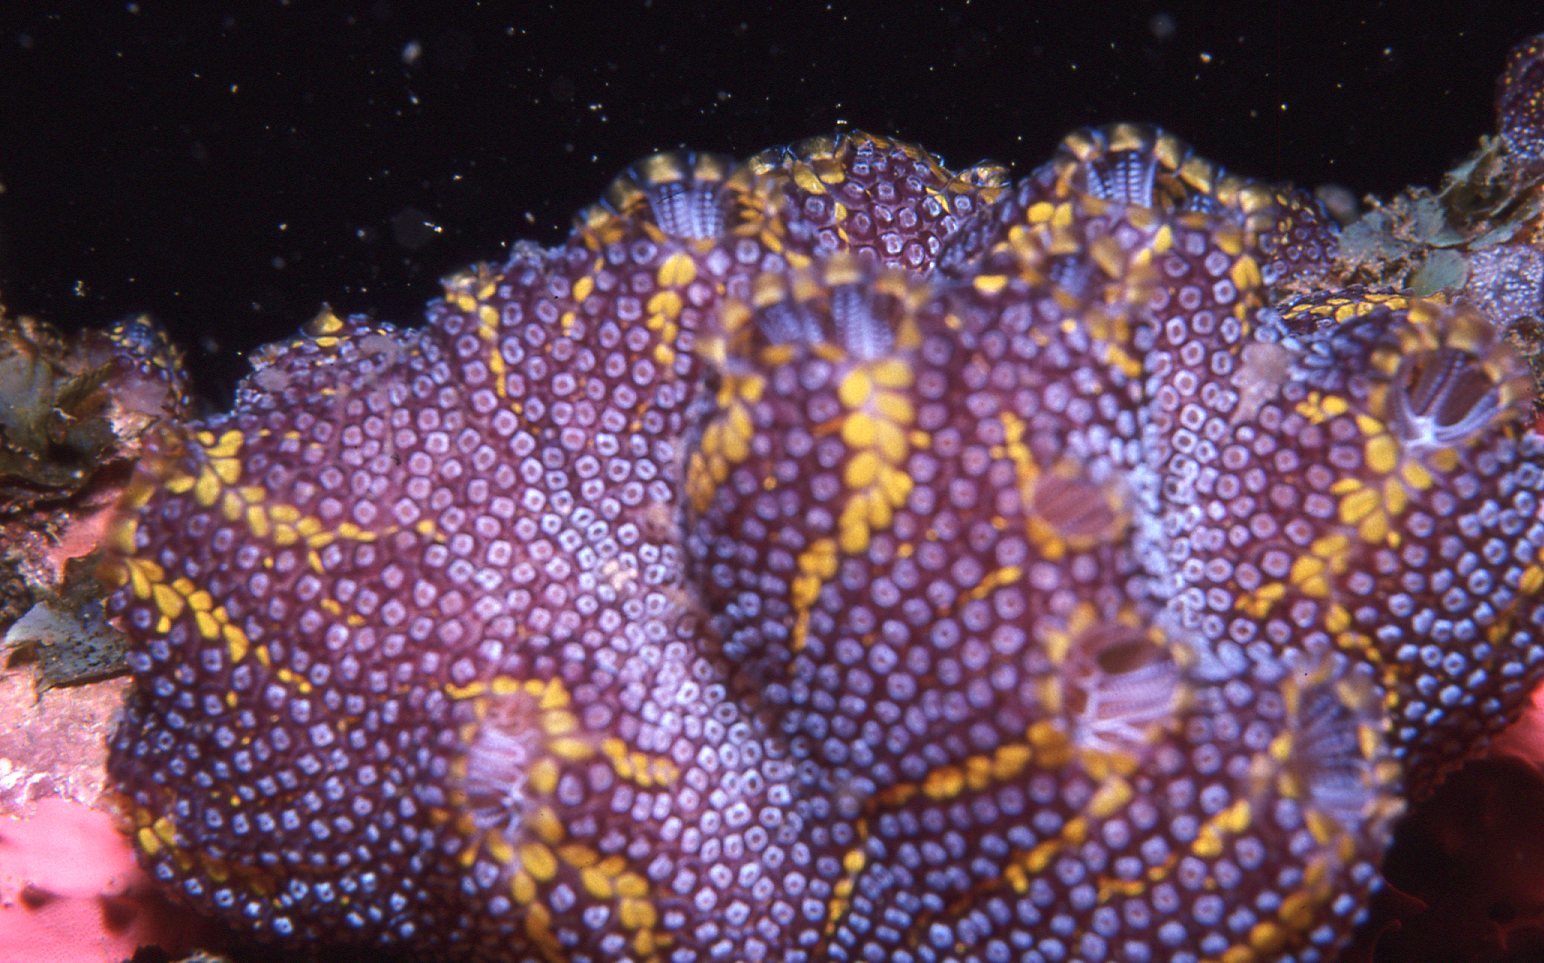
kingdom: Animalia
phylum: Chordata
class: Ascidiacea
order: Stolidobranchia
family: Styelidae
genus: Botrylloides
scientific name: Botrylloides magnicoecus
